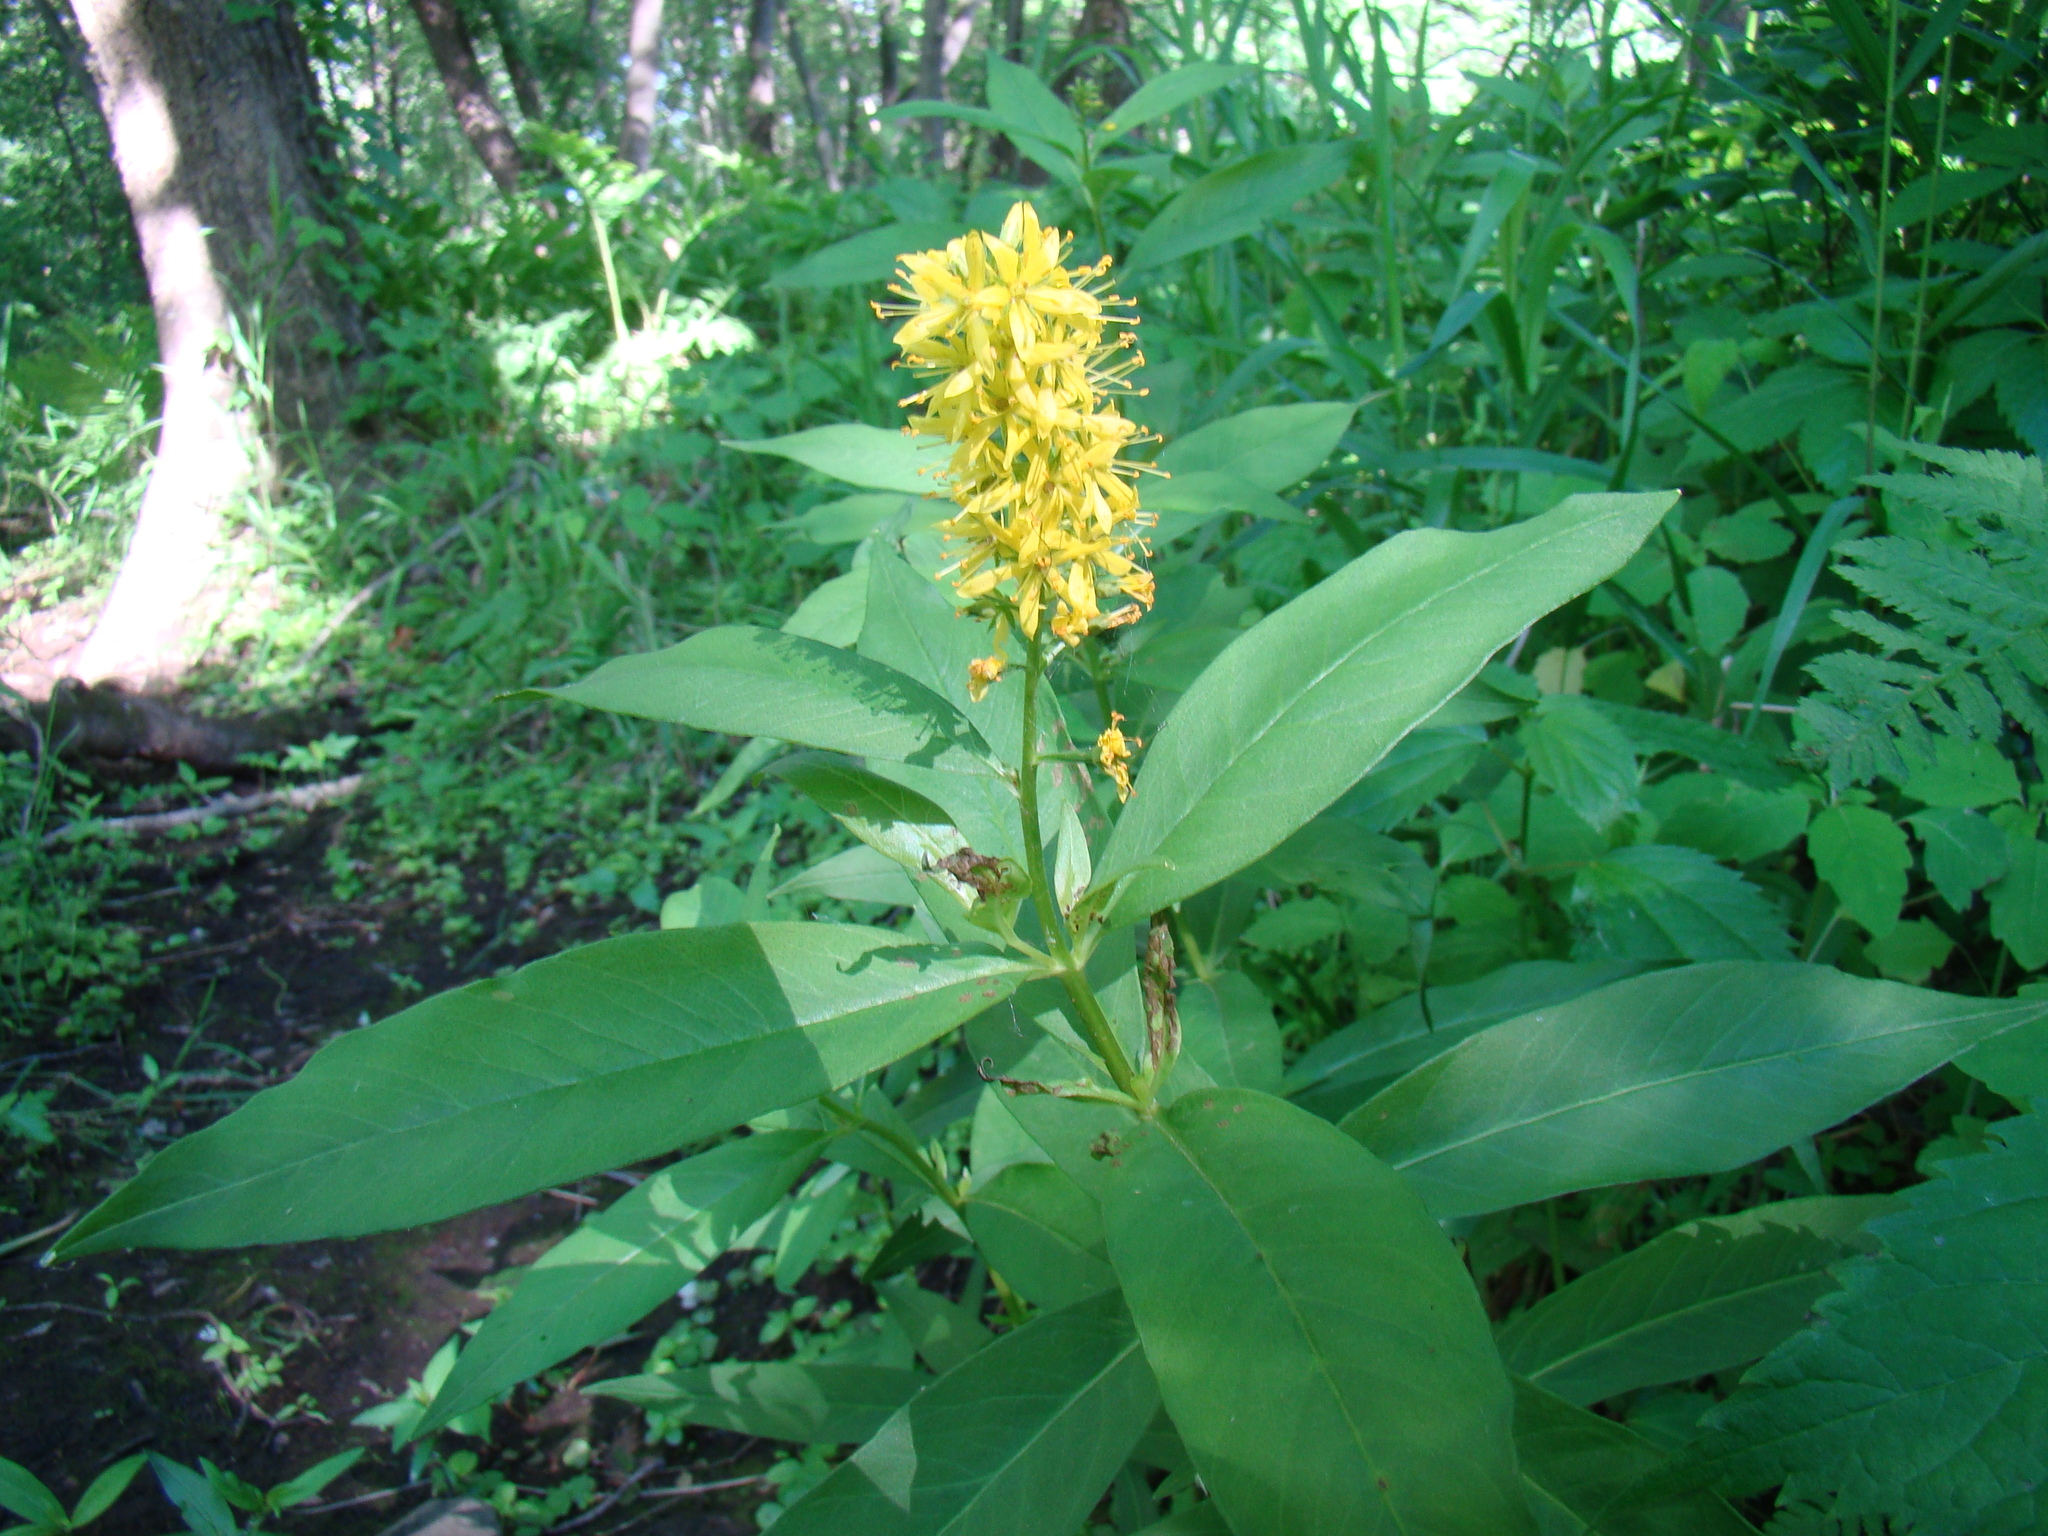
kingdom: Plantae
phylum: Tracheophyta
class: Magnoliopsida
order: Ericales
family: Primulaceae
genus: Lysimachia
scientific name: Lysimachia terrestris
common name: Lake loosestrife
